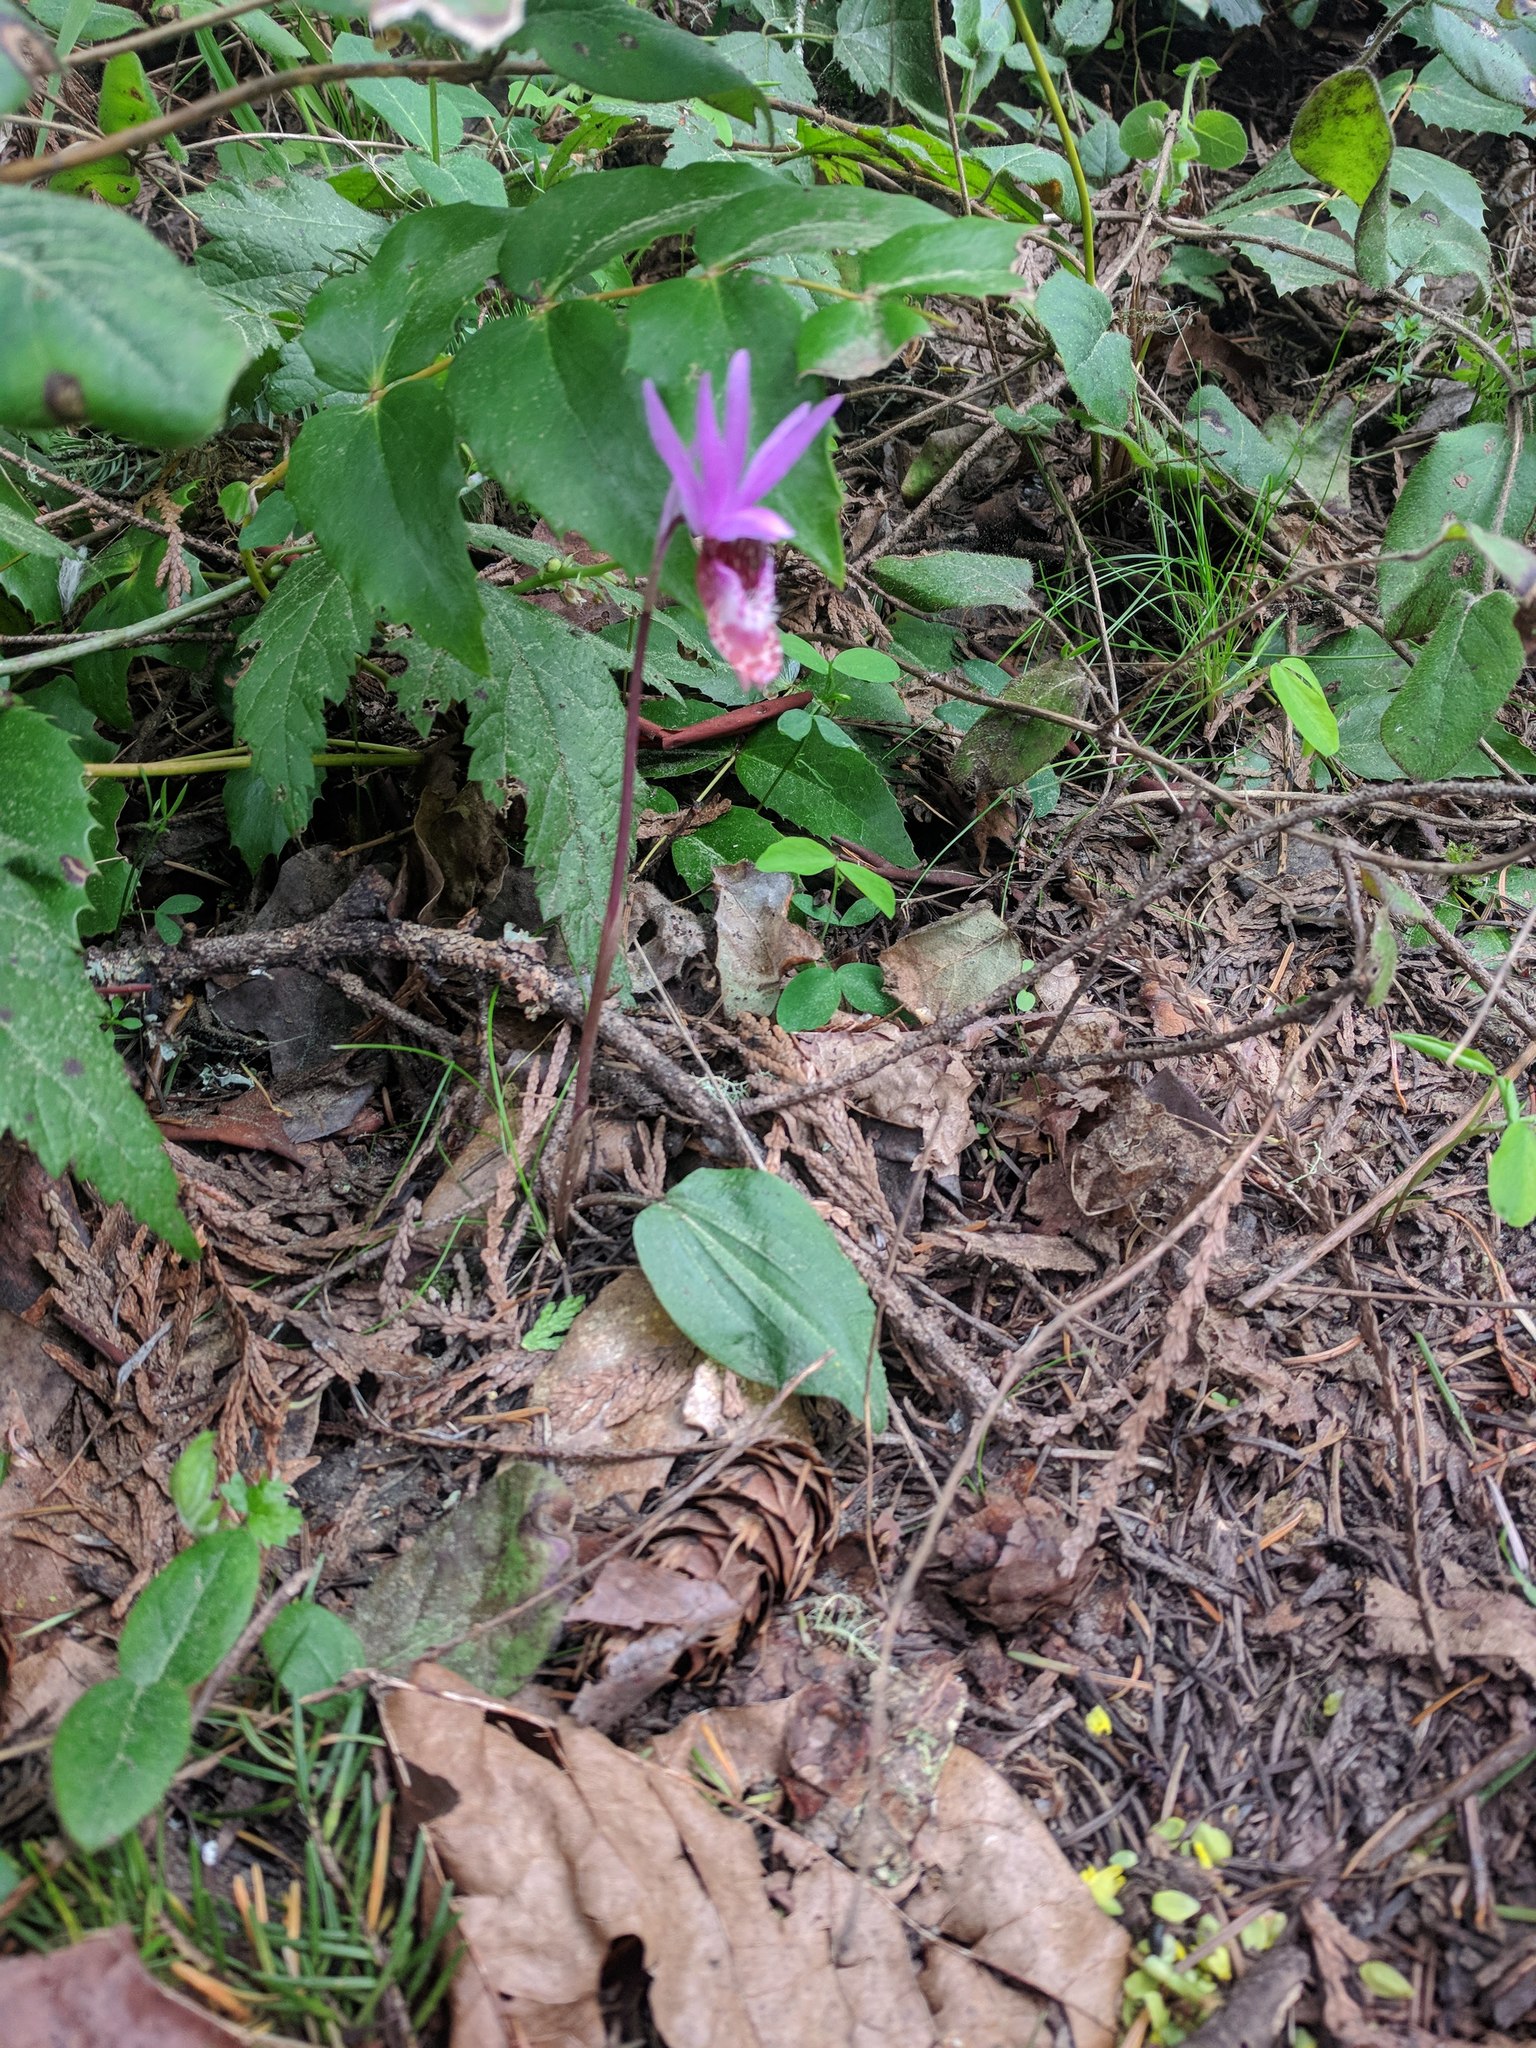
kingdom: Plantae
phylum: Tracheophyta
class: Liliopsida
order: Asparagales
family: Orchidaceae
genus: Calypso
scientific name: Calypso bulbosa
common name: Calypso
